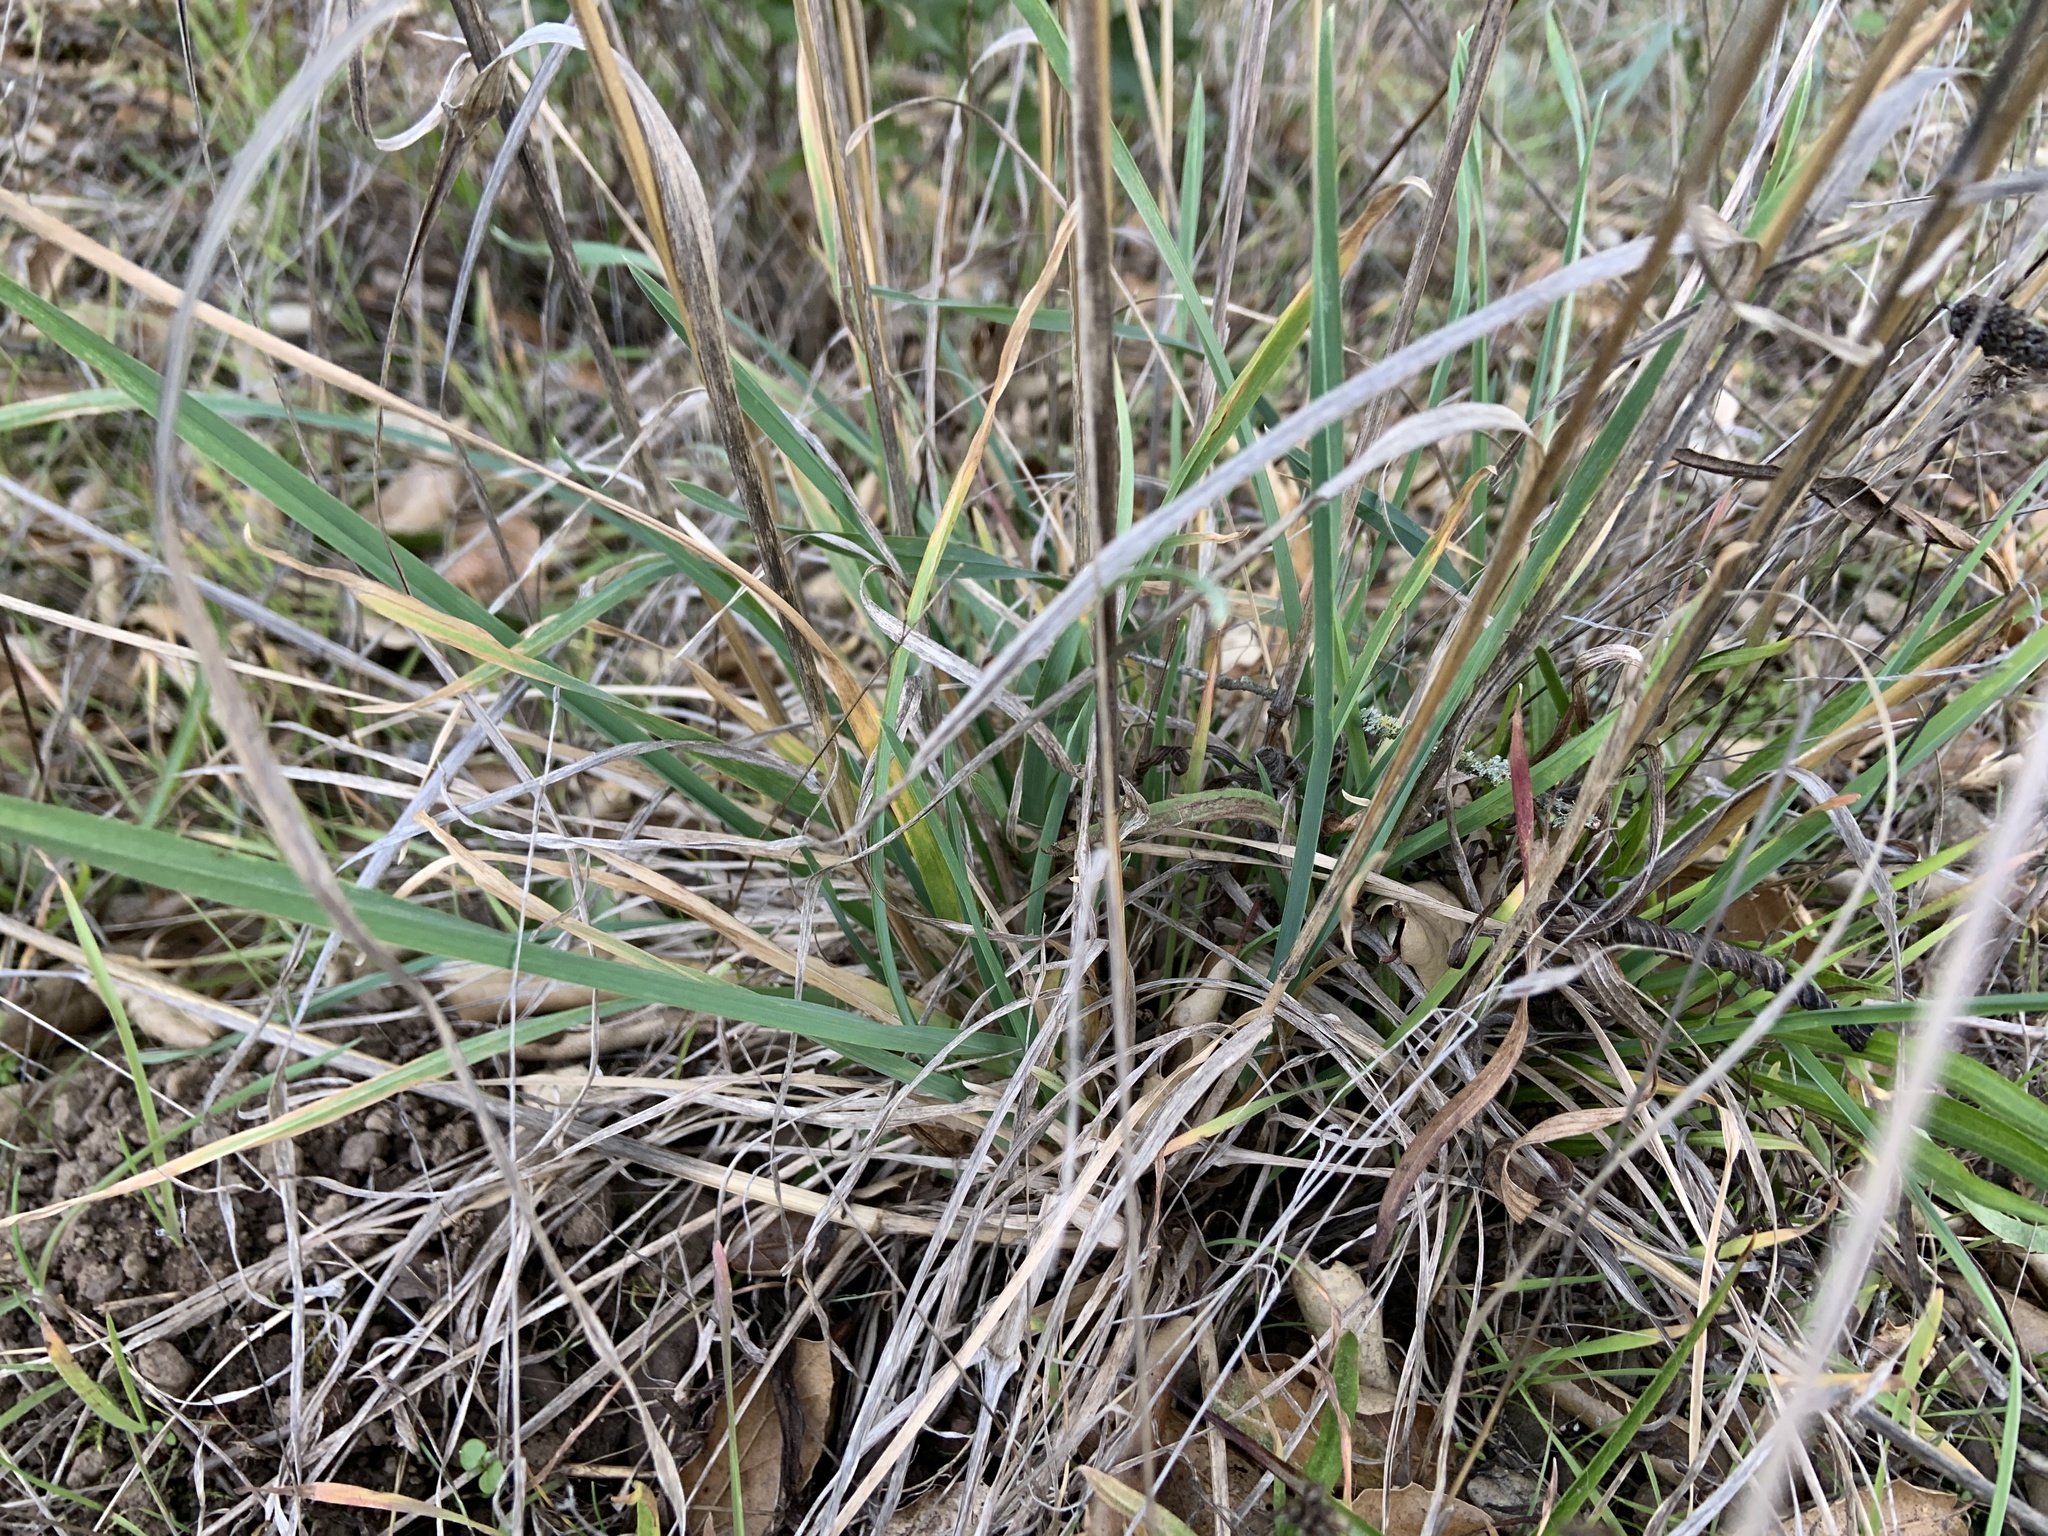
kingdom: Plantae
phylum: Tracheophyta
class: Liliopsida
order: Poales
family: Poaceae
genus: Dactylis
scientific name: Dactylis glomerata
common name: Orchardgrass
